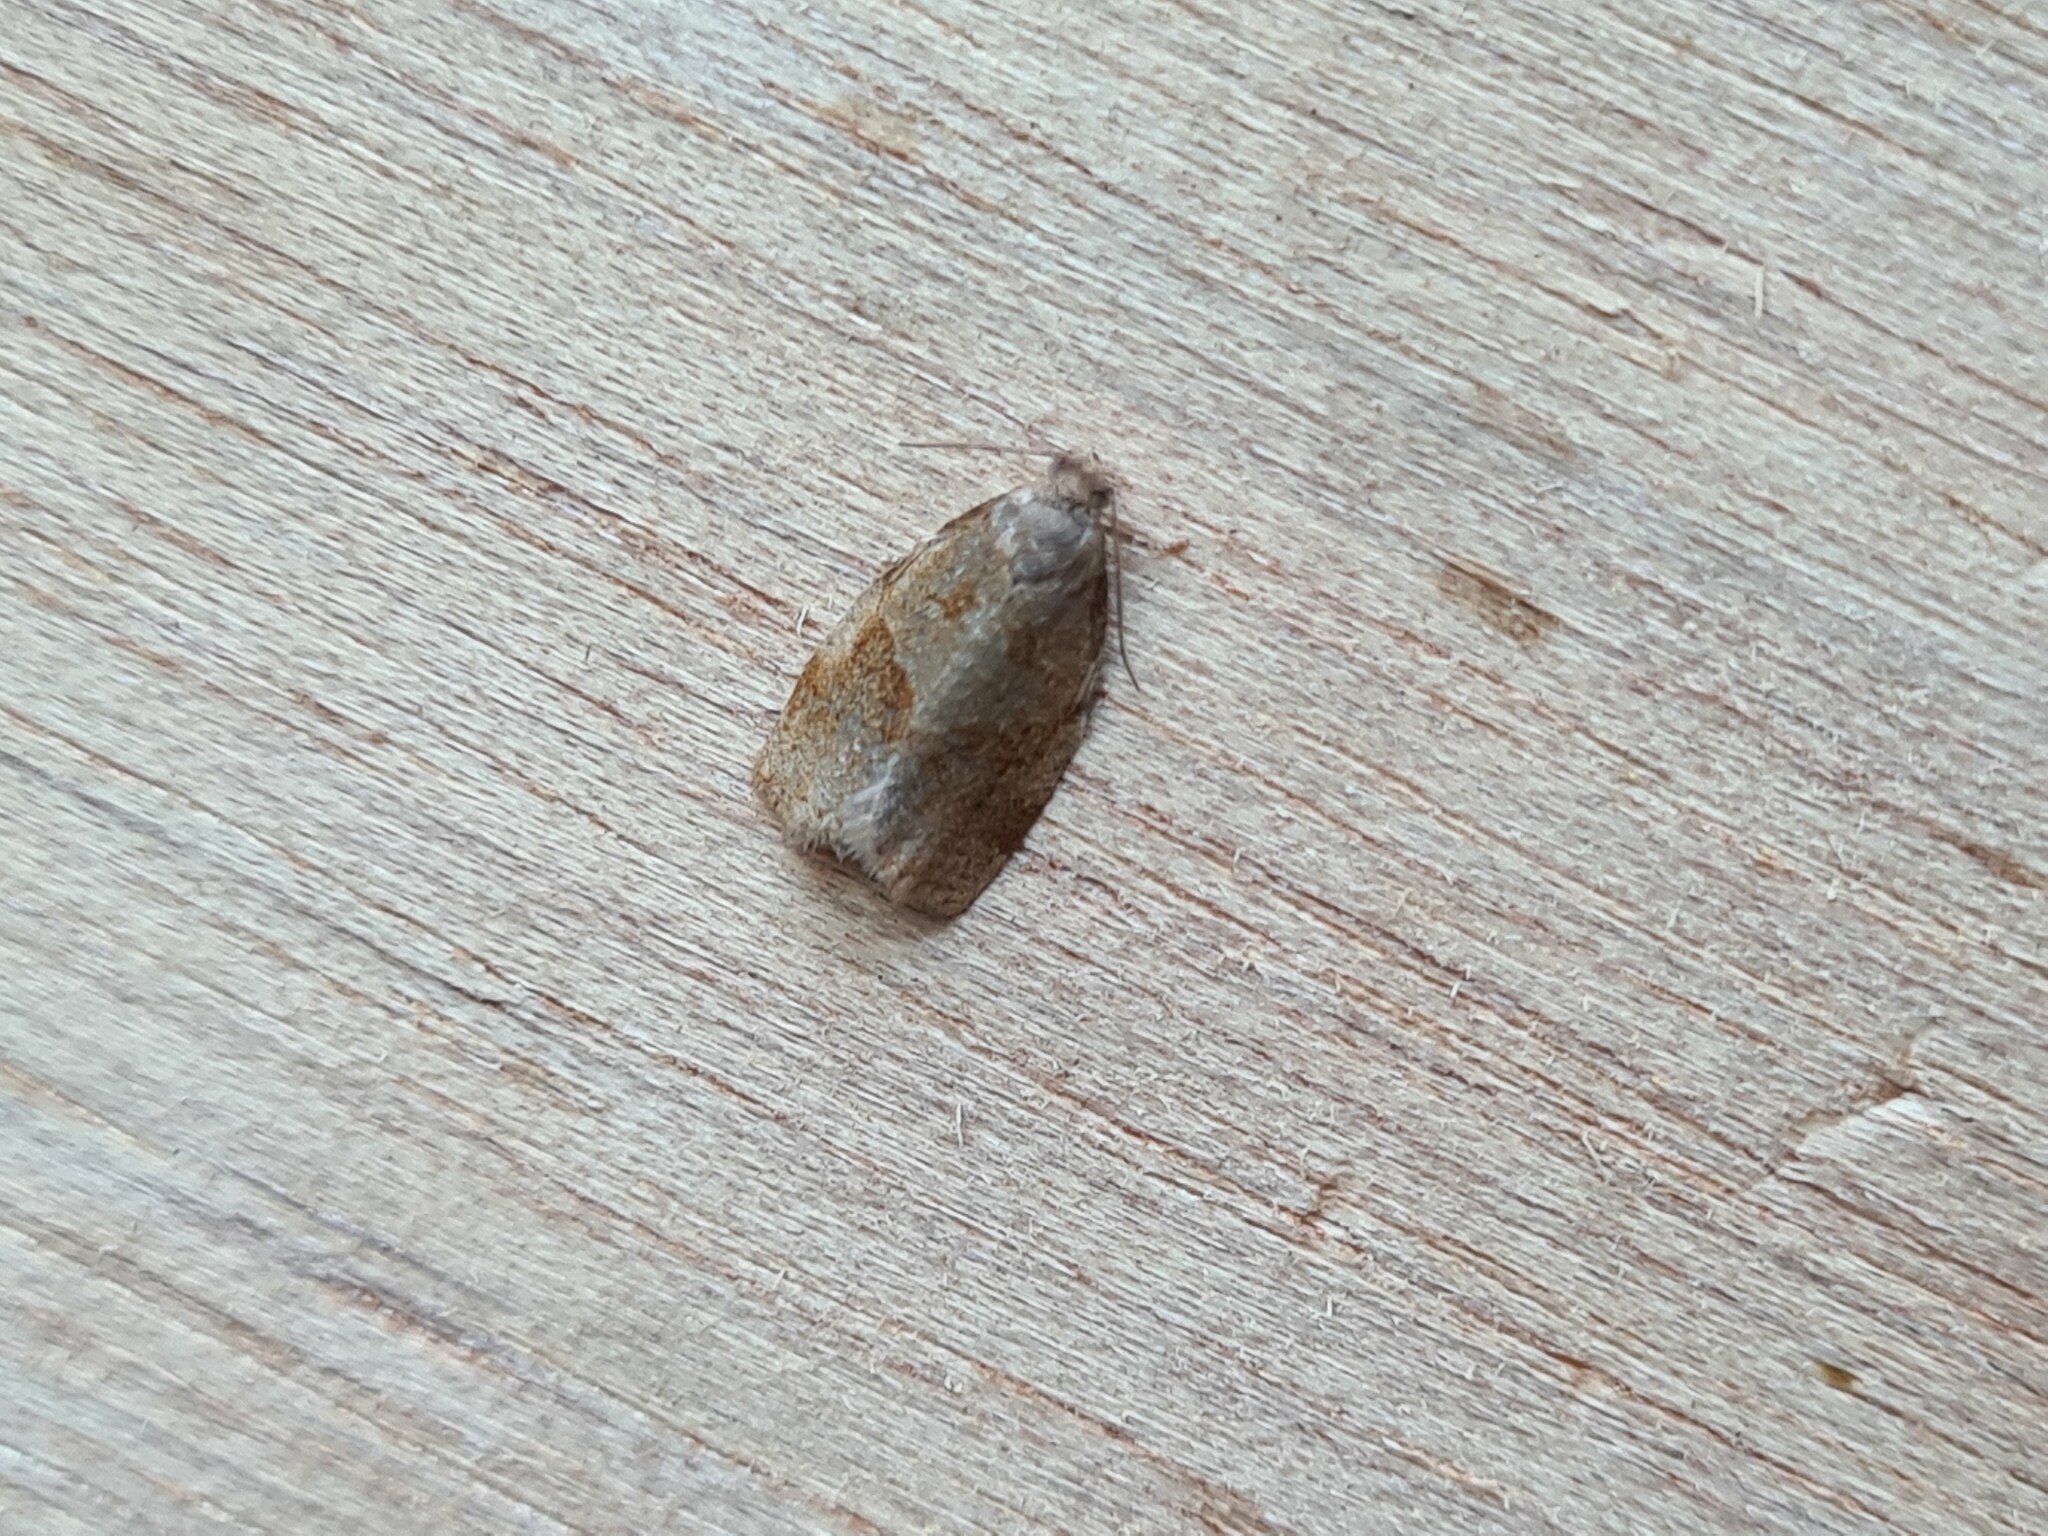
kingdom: Animalia
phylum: Arthropoda
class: Insecta
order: Lepidoptera
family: Tortricidae
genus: Archips
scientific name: Archips rosana
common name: Rose tortrix
